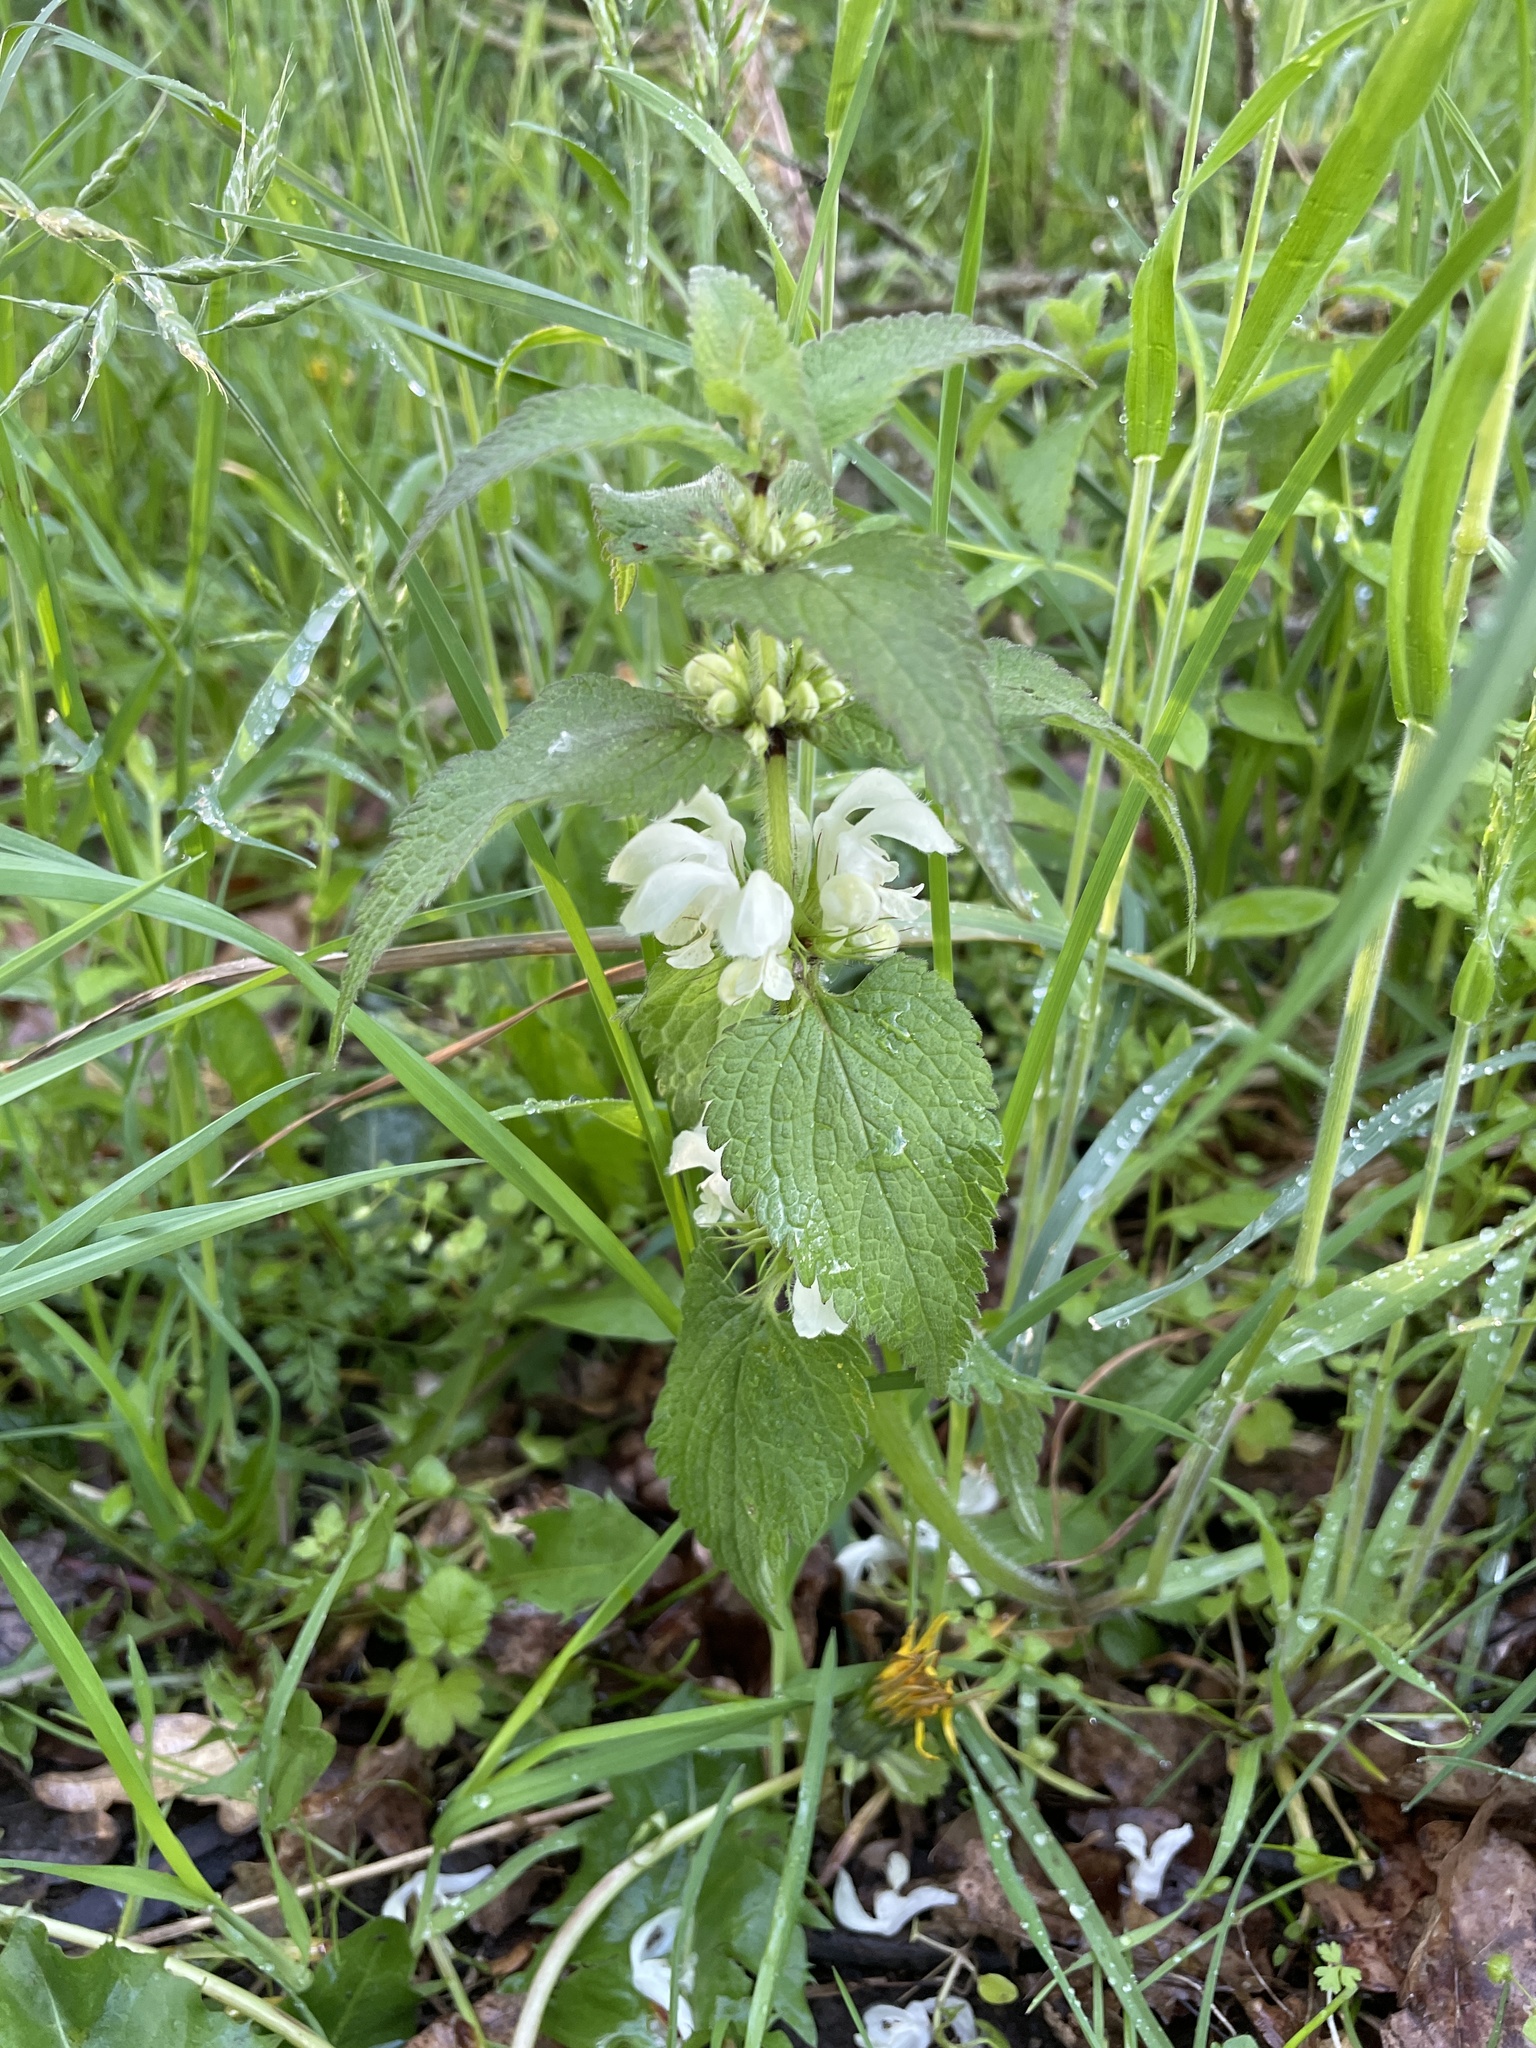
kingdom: Plantae
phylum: Tracheophyta
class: Magnoliopsida
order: Lamiales
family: Lamiaceae
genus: Lamium
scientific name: Lamium album
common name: White dead-nettle
